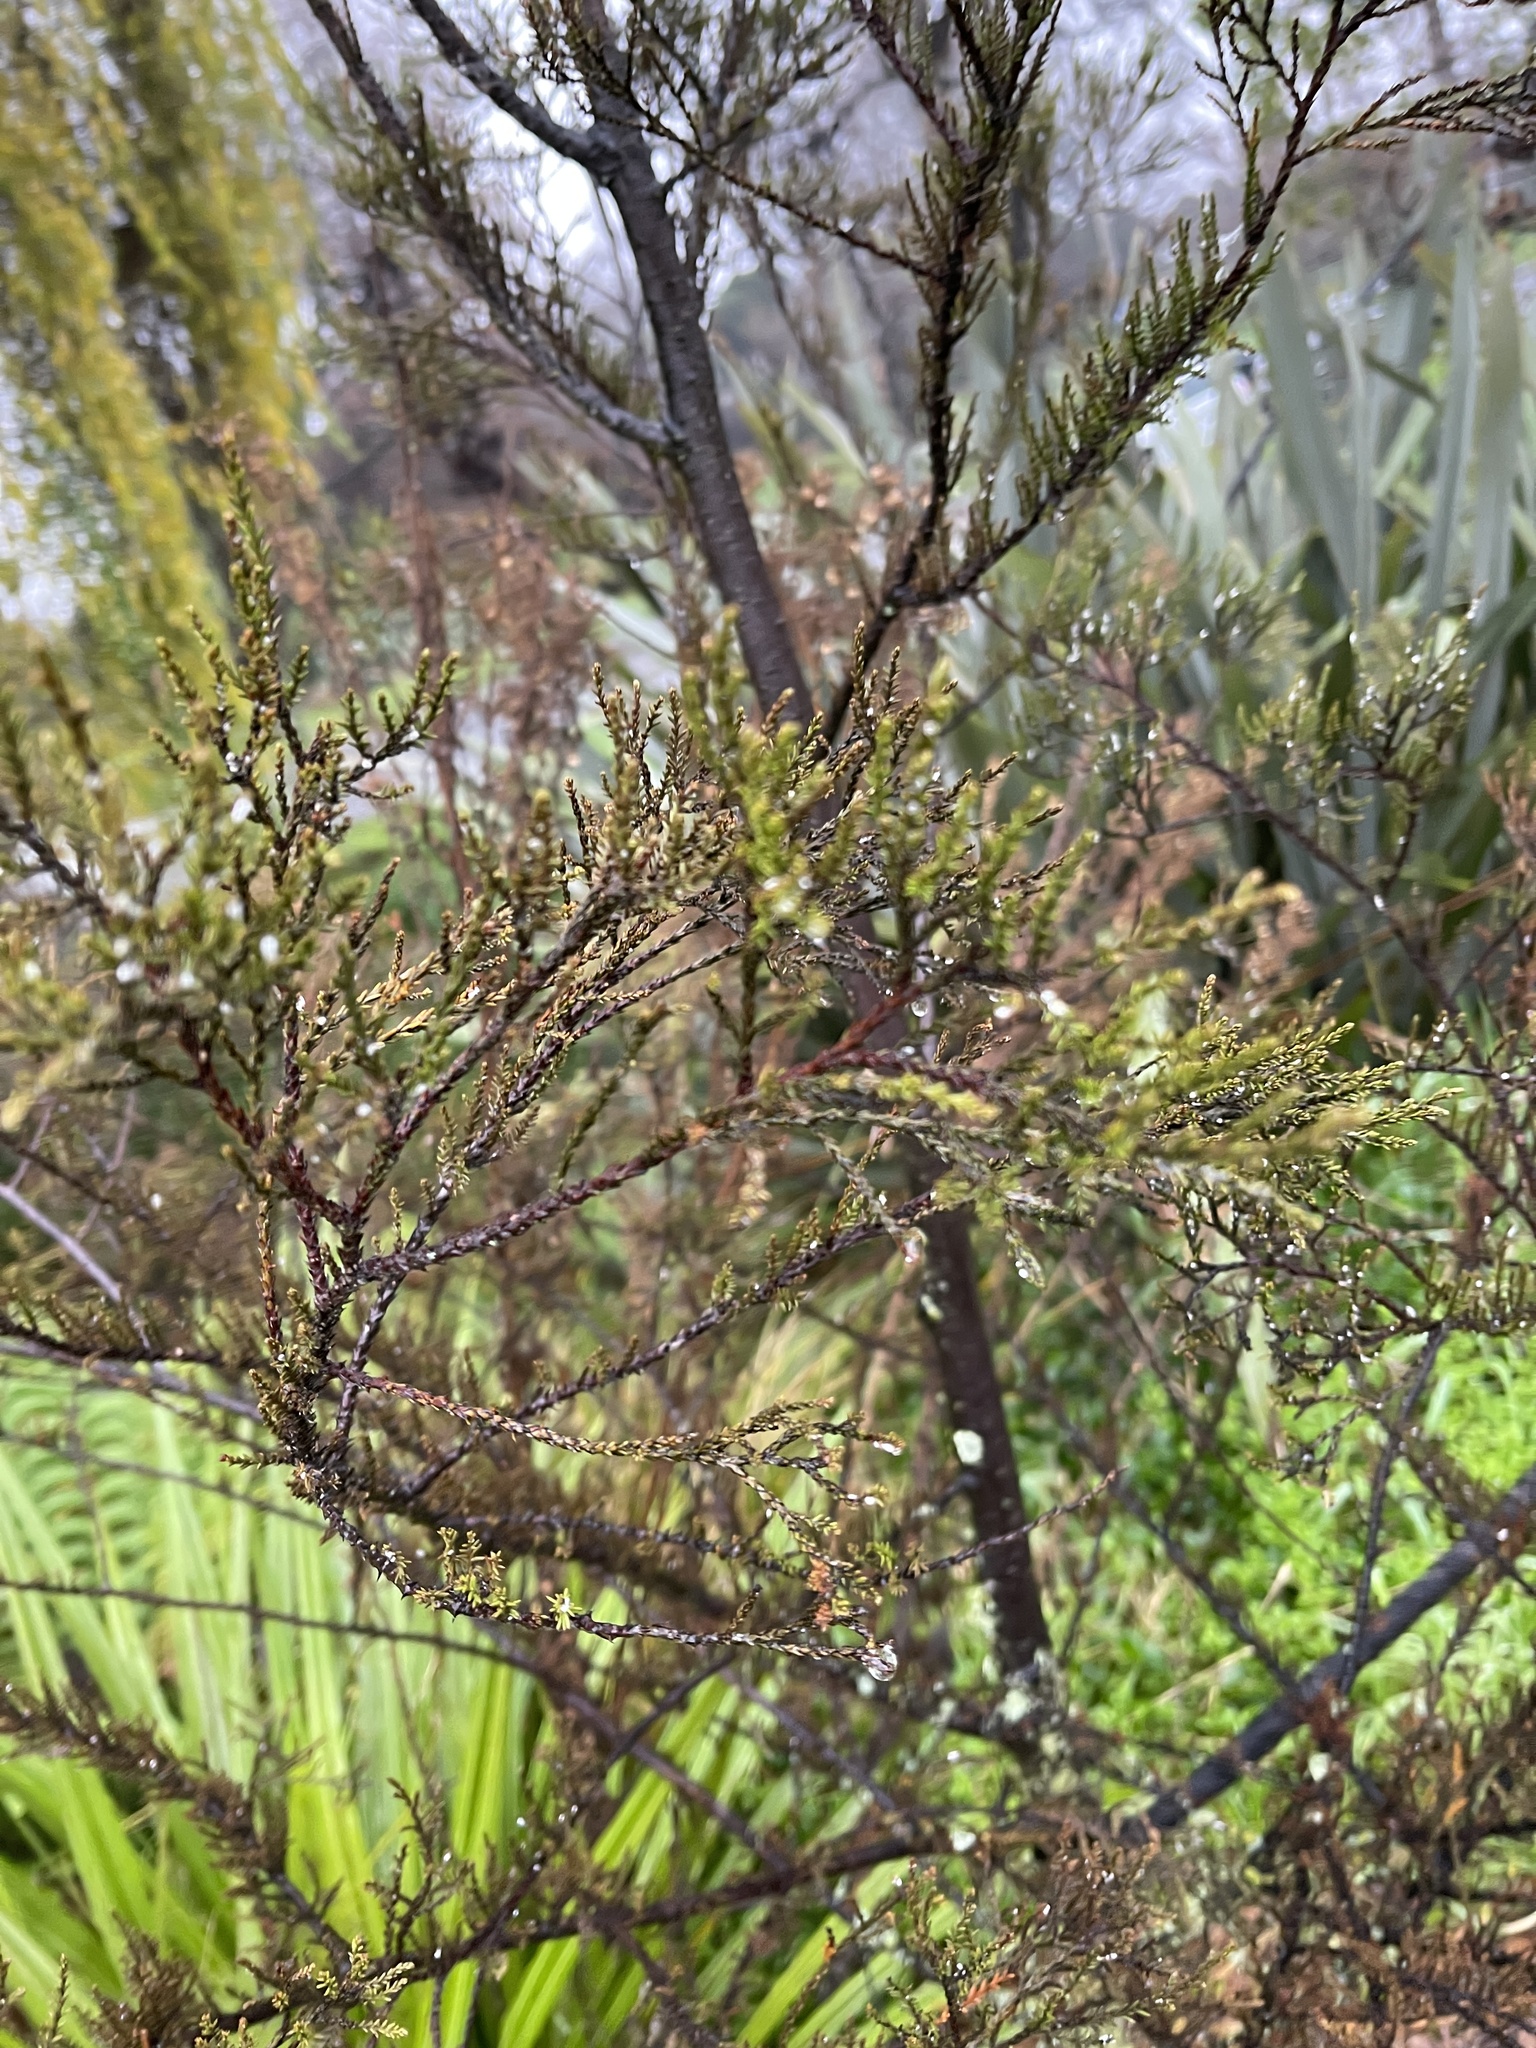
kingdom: Plantae
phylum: Tracheophyta
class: Pinopsida
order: Pinales
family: Podocarpaceae
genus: Dacrycarpus
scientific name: Dacrycarpus dacrydioides
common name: White pine
